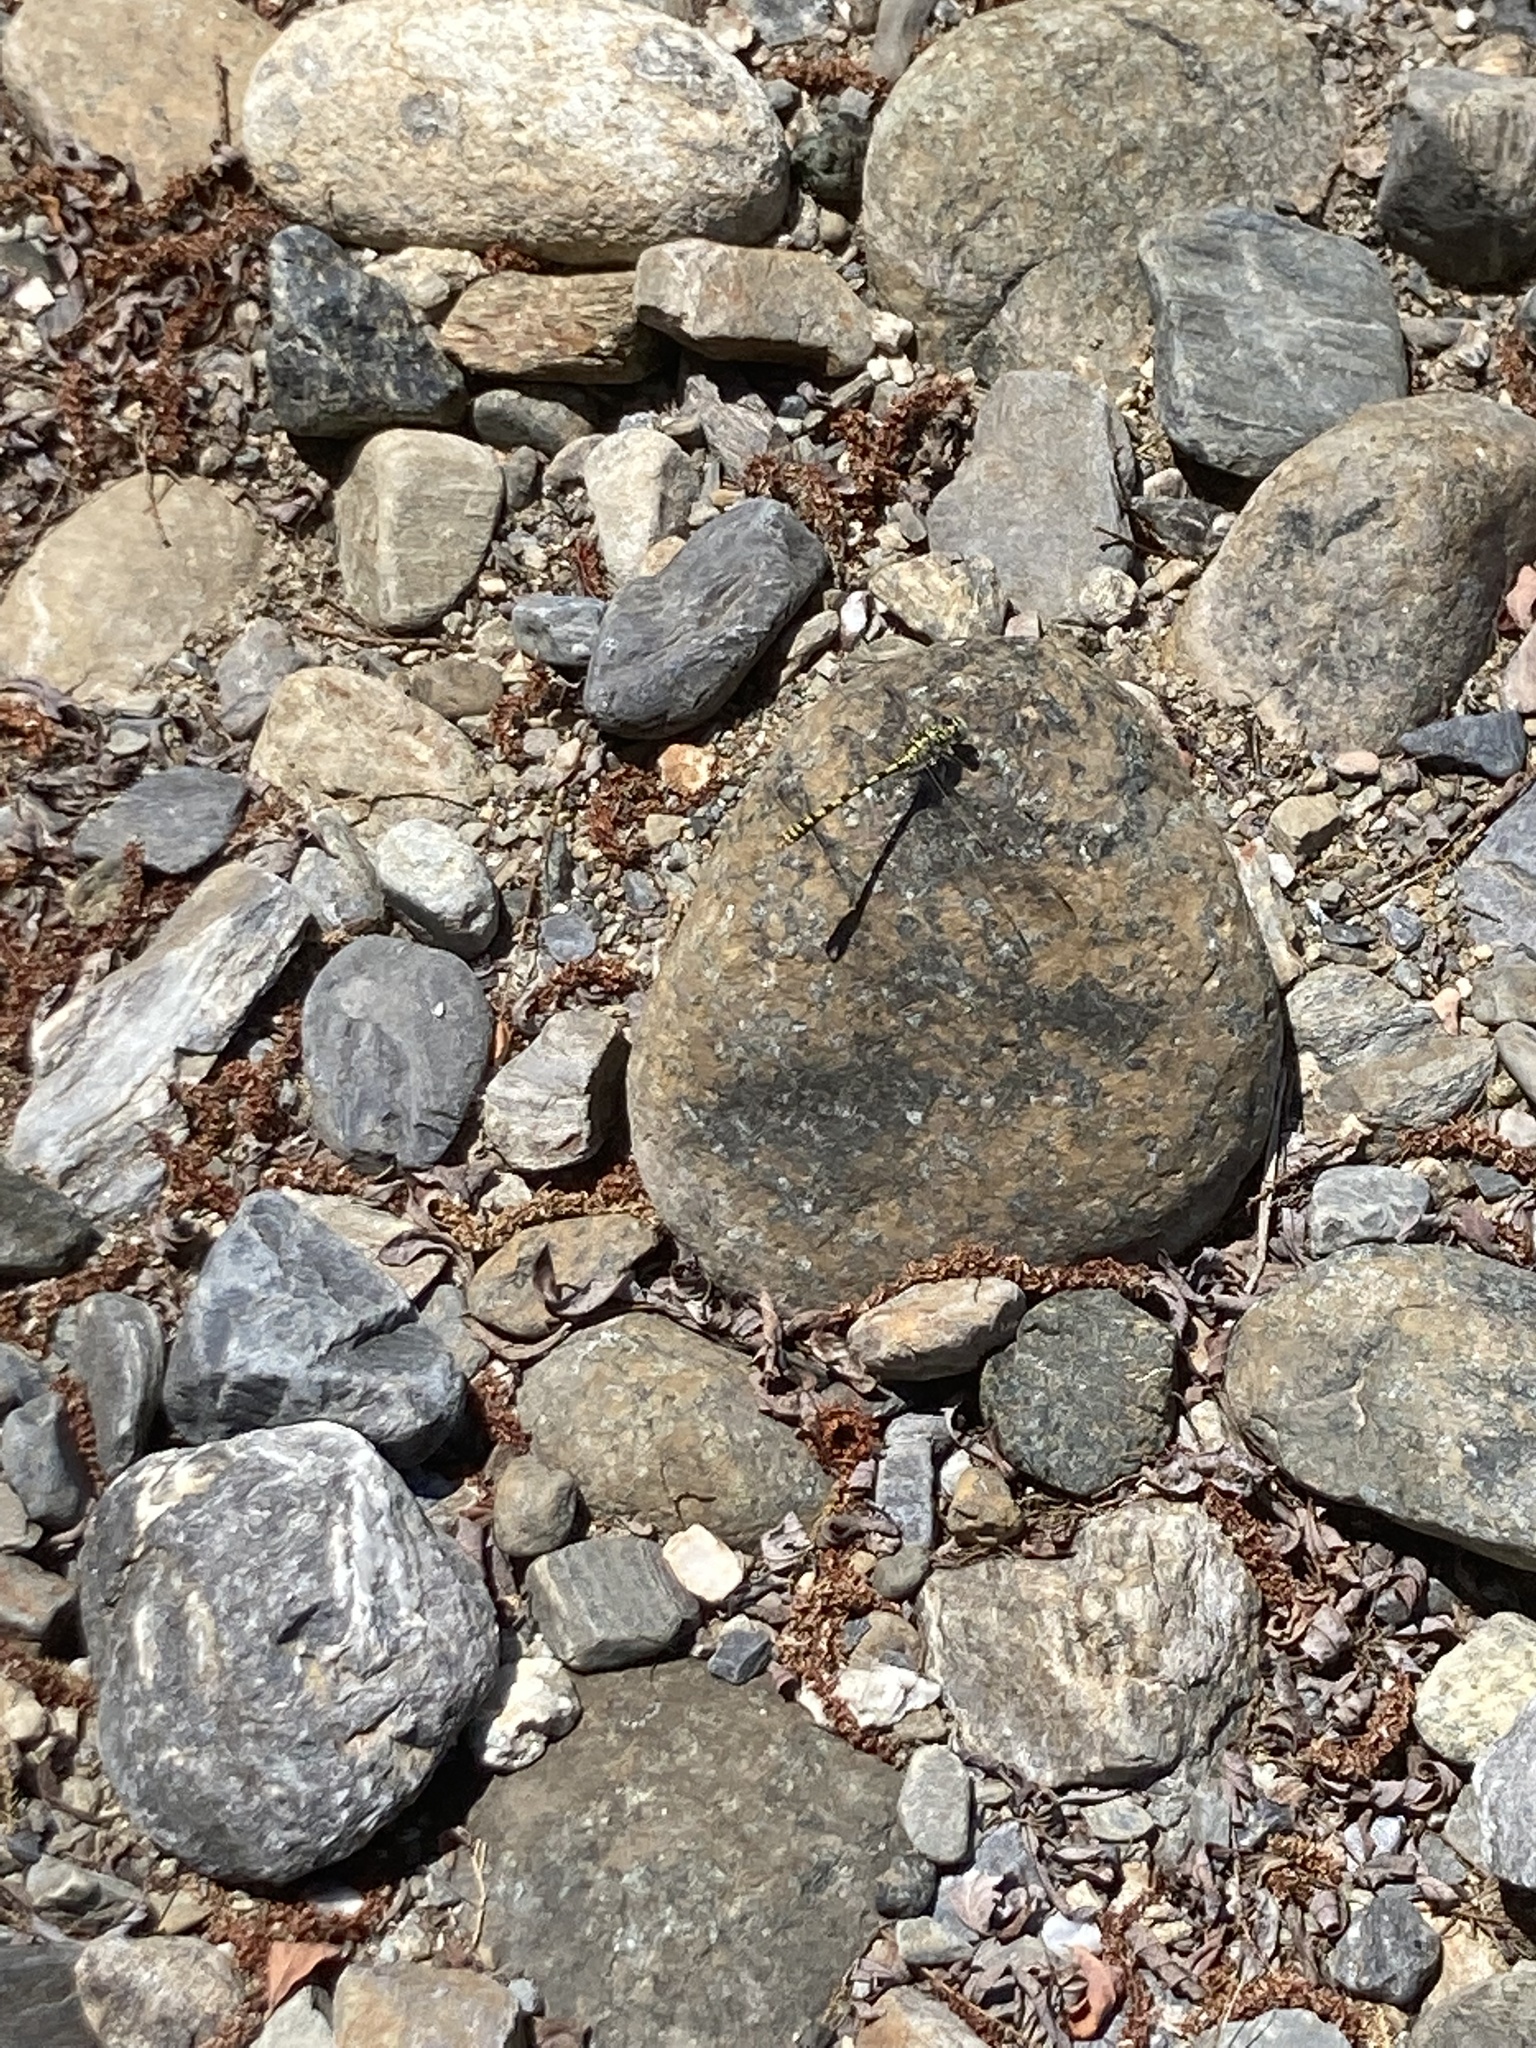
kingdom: Animalia
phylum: Arthropoda
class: Insecta
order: Odonata
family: Gomphidae
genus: Onychogomphus
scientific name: Onychogomphus forcipatus
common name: Small pincertail
